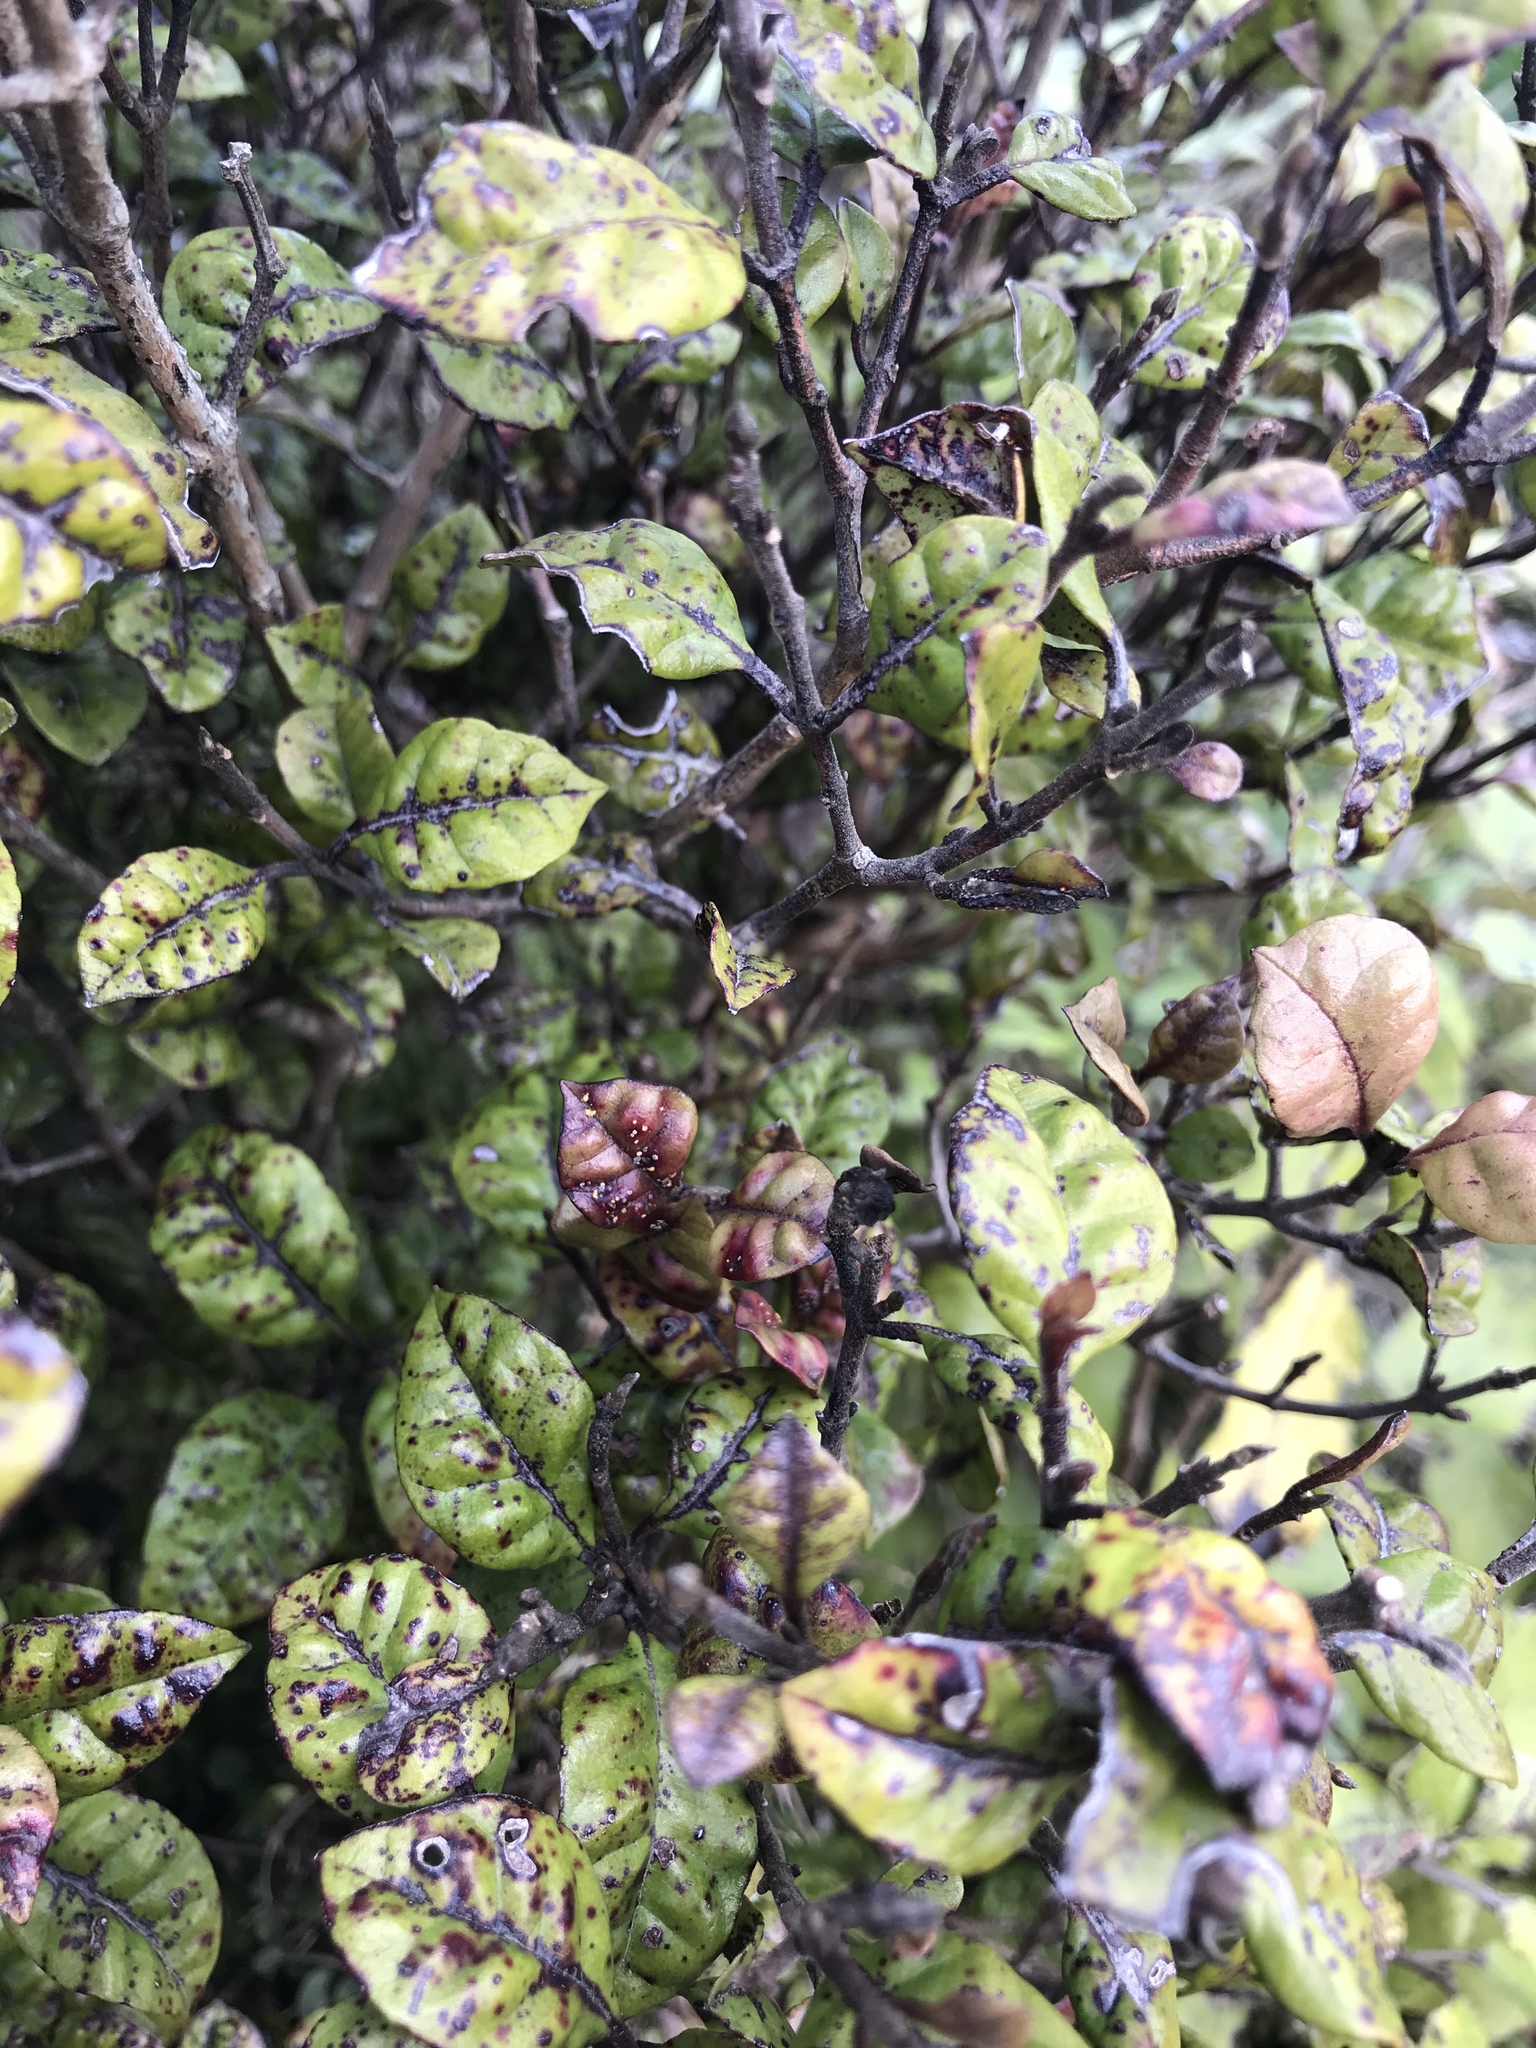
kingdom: Plantae
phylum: Tracheophyta
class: Magnoliopsida
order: Myrtales
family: Myrtaceae
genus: Lophomyrtus
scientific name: Lophomyrtus bullata
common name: Rama rama
